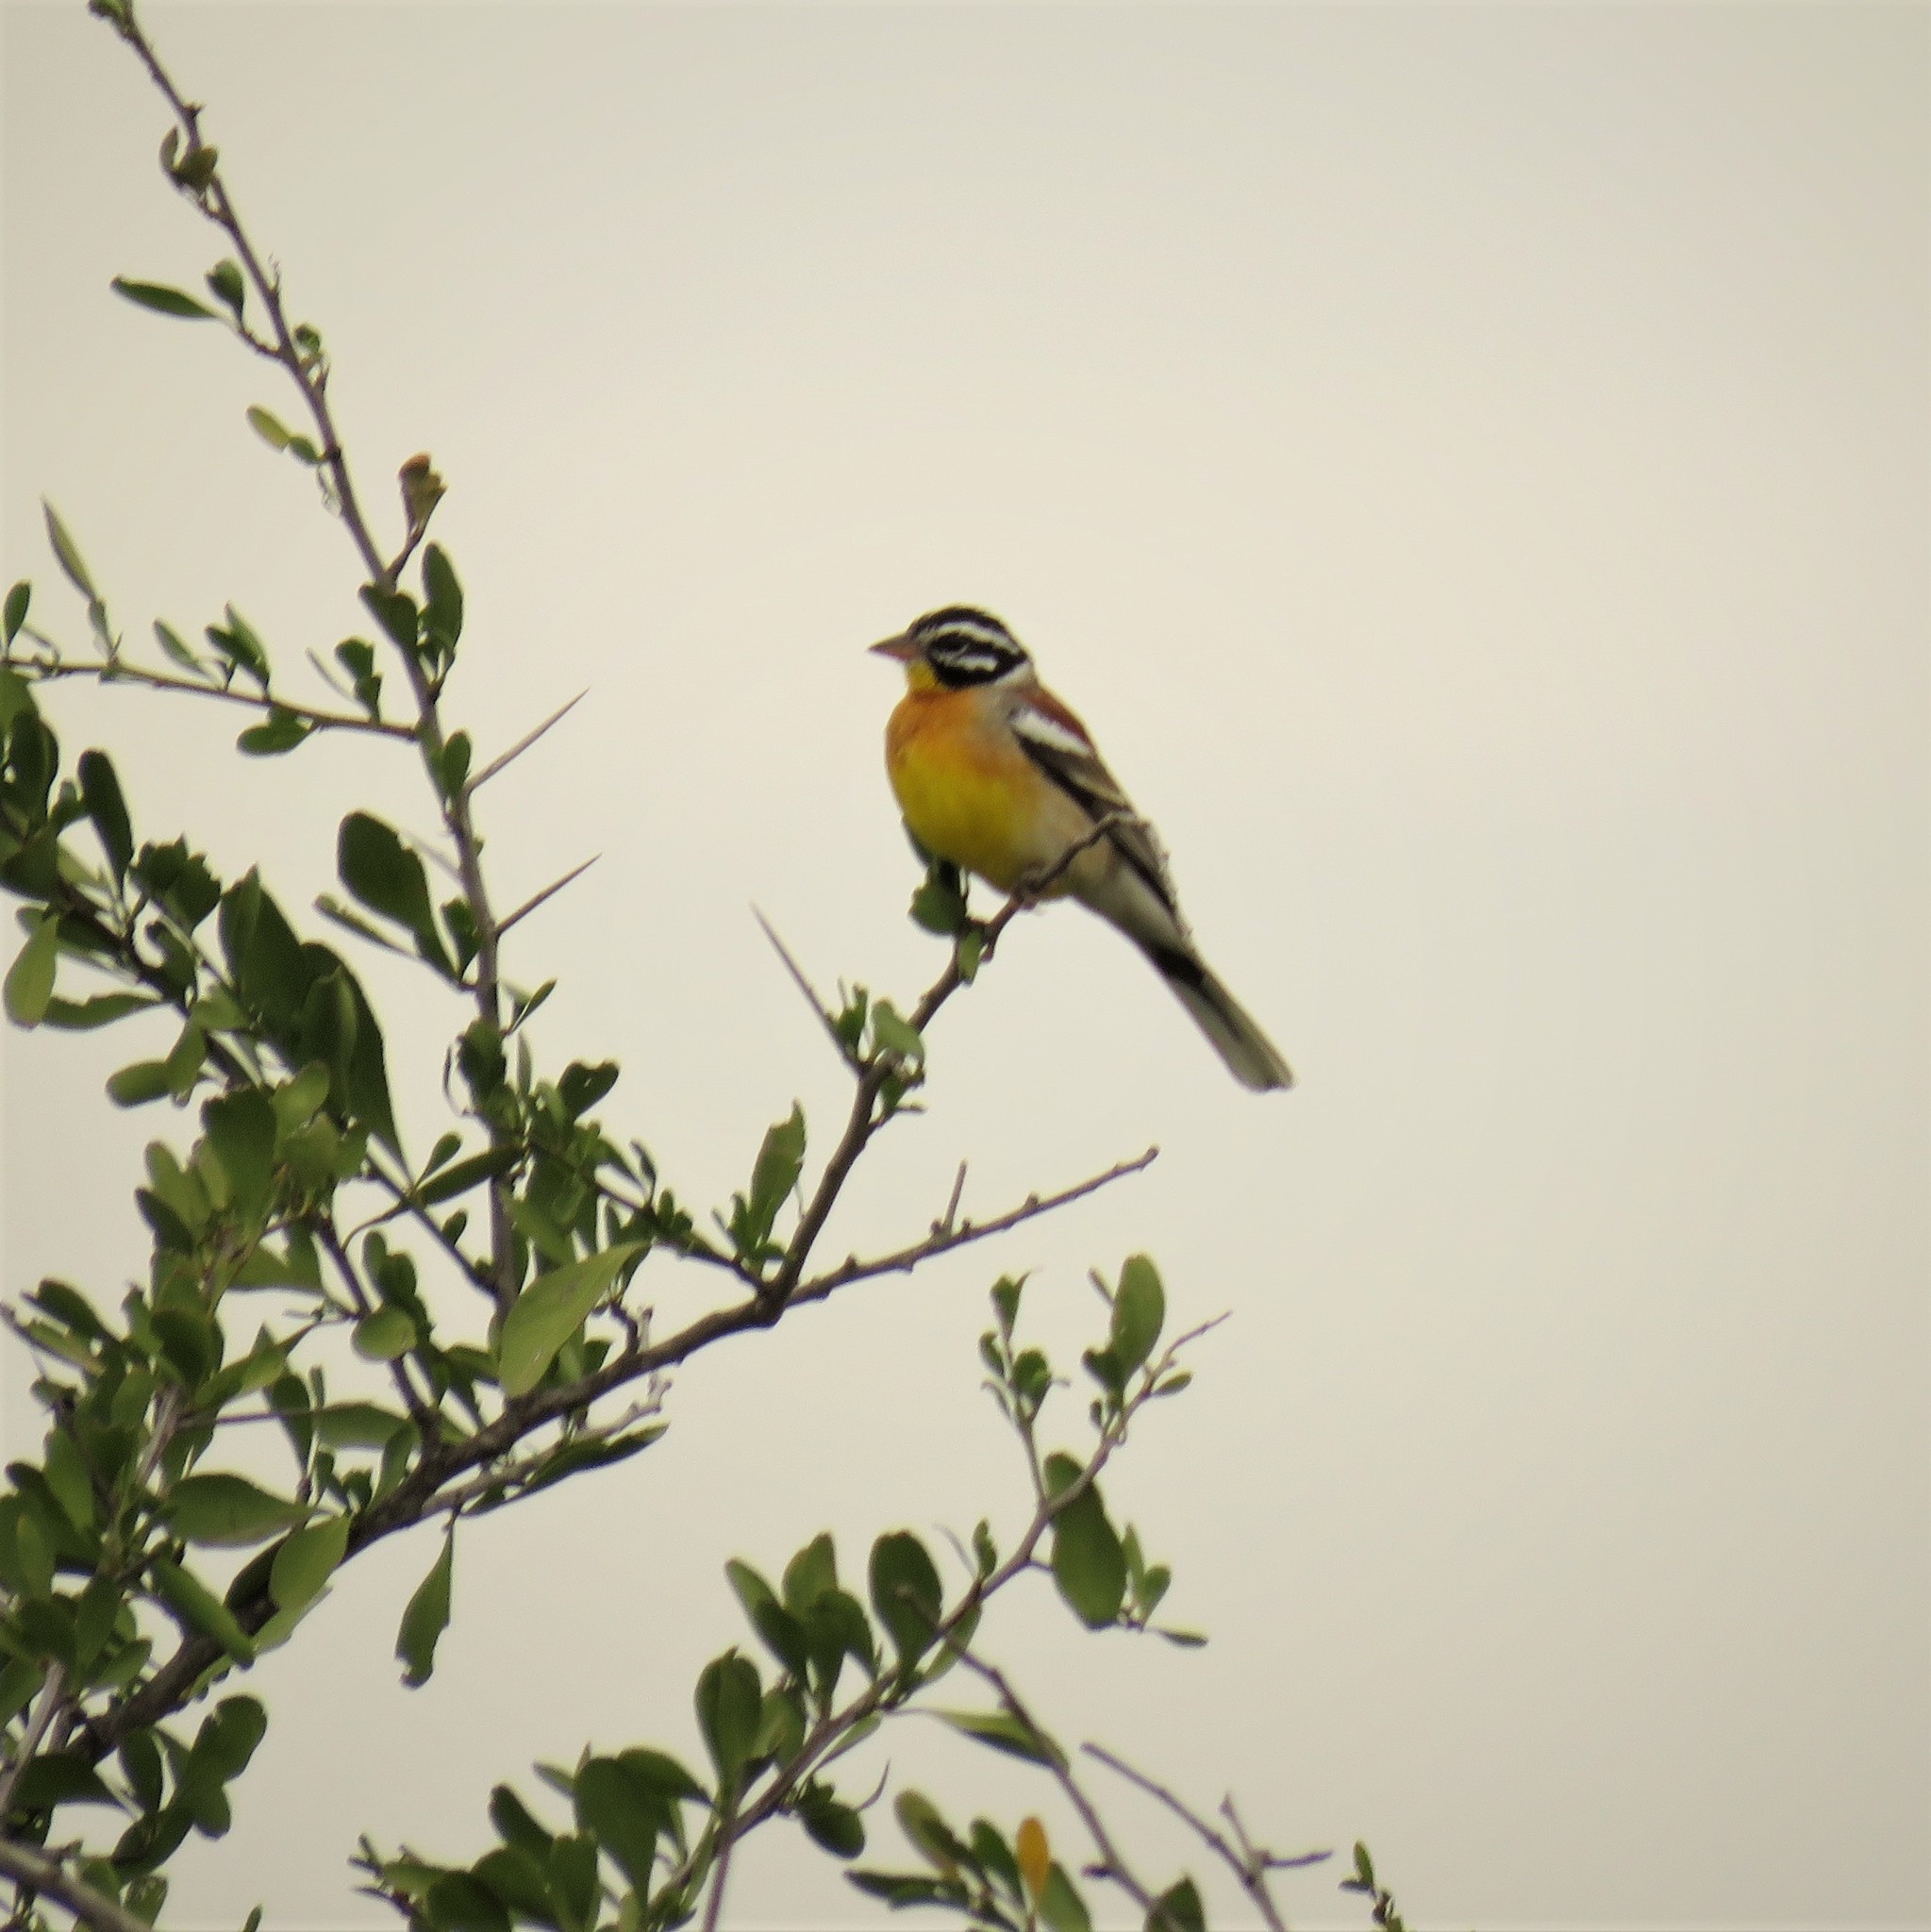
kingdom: Animalia
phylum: Chordata
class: Aves
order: Passeriformes
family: Emberizidae
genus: Emberiza
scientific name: Emberiza flaviventris
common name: Golden-breasted bunting
